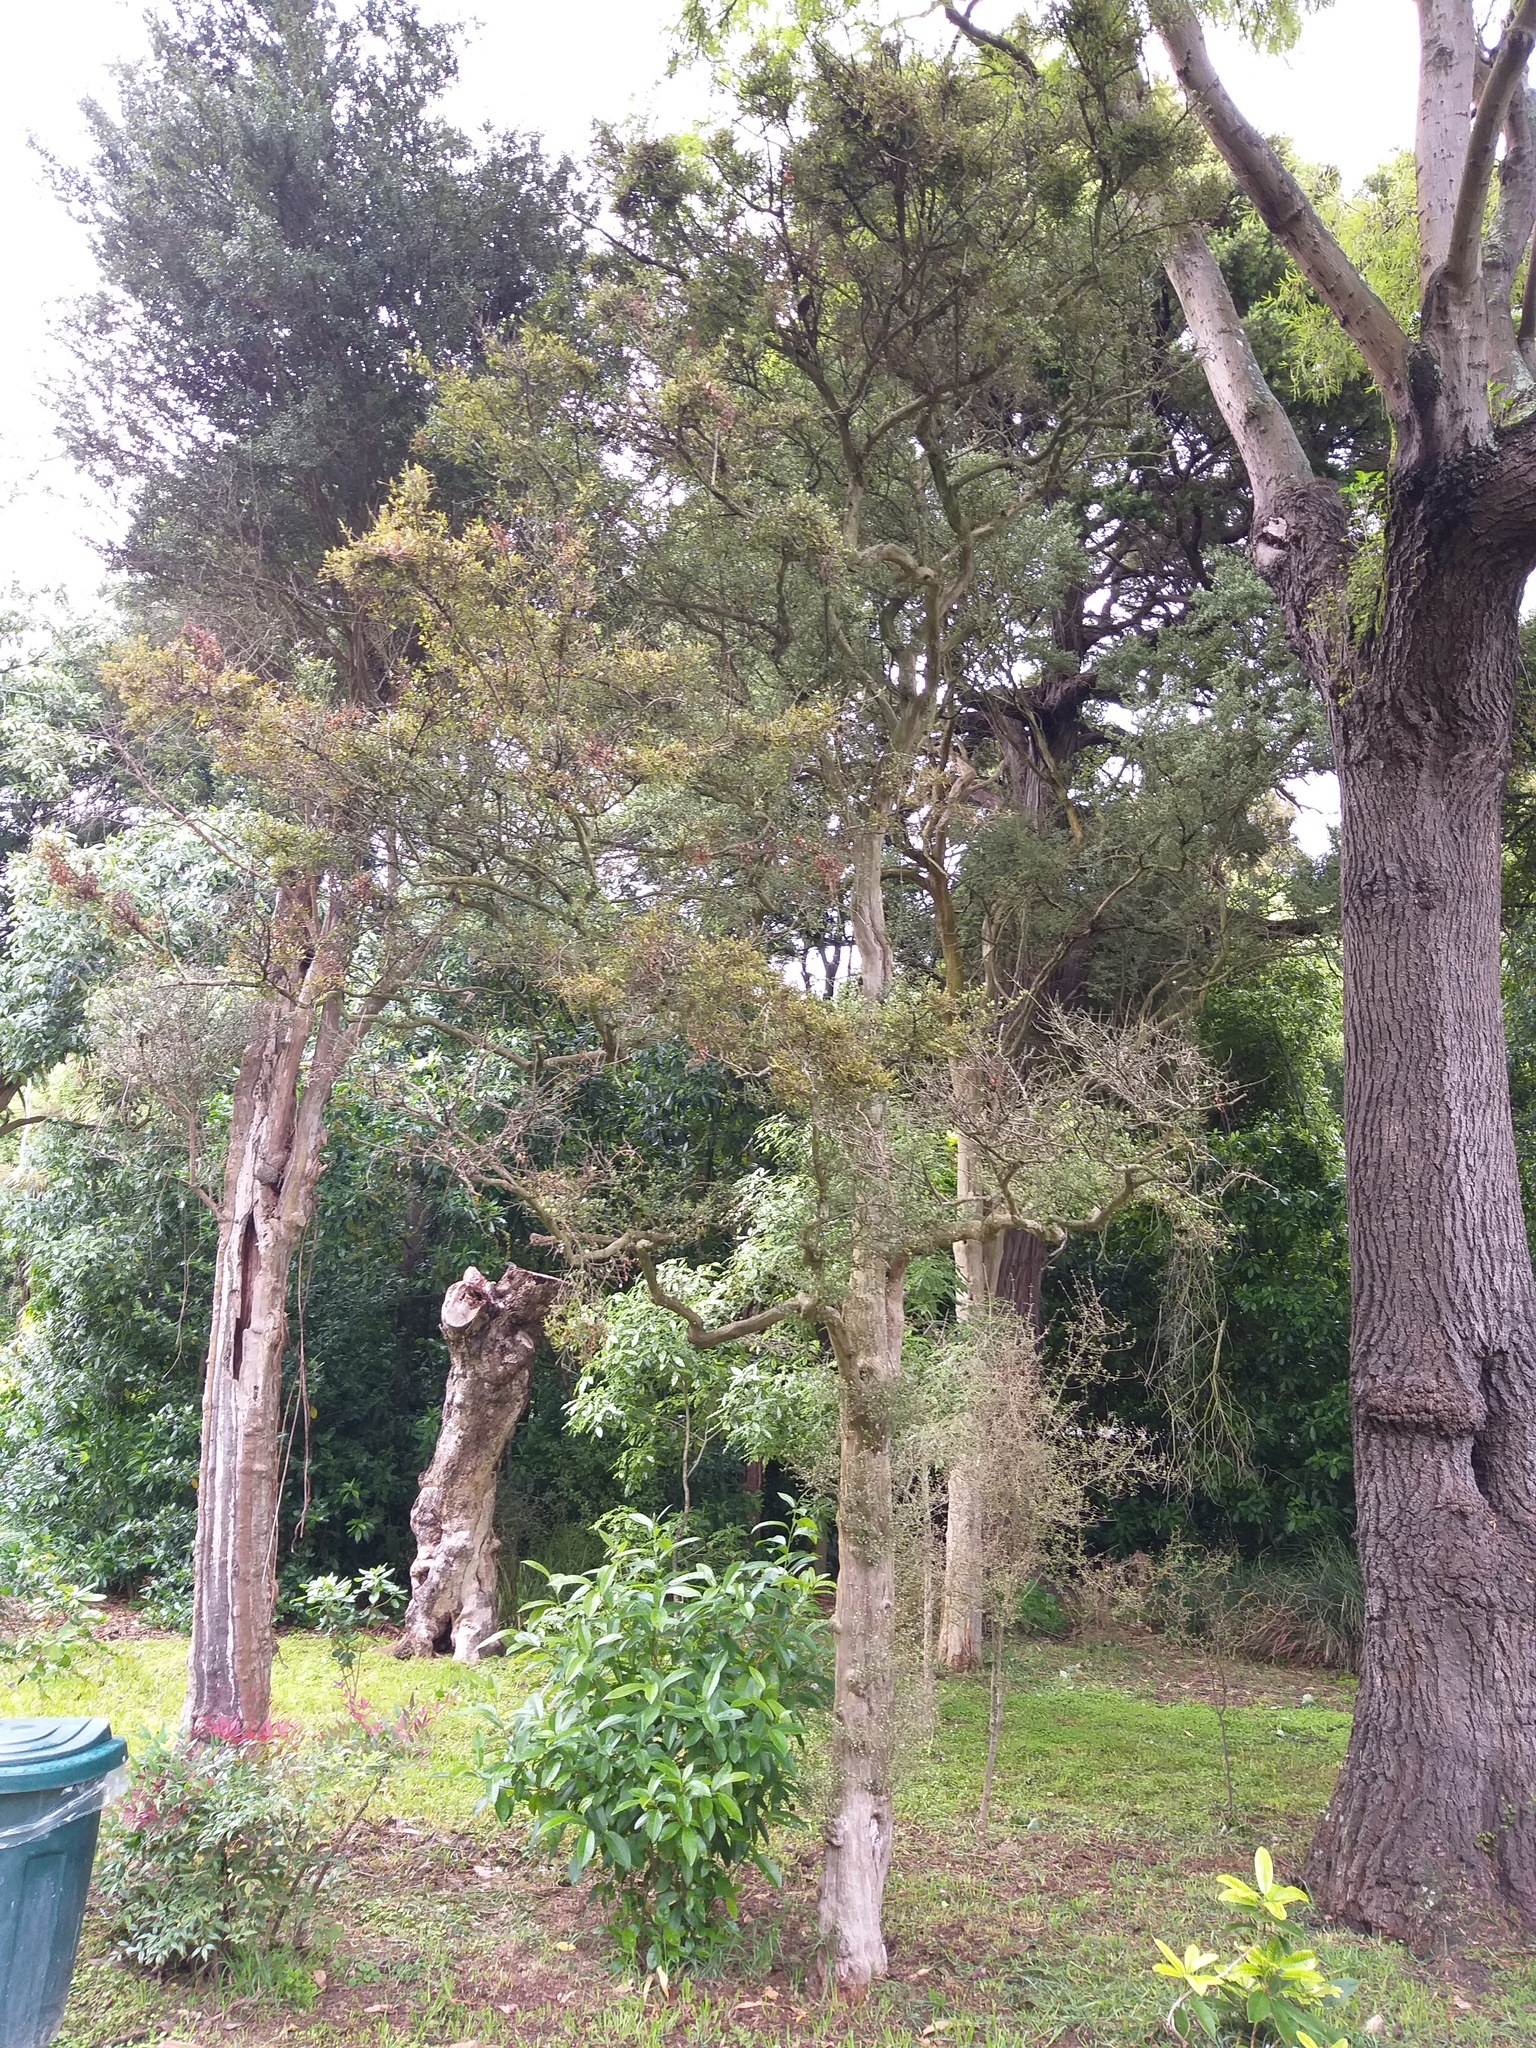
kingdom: Plantae
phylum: Tracheophyta
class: Magnoliopsida
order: Santalales
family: Viscaceae
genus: Korthalsella
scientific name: Korthalsella lindsayi
